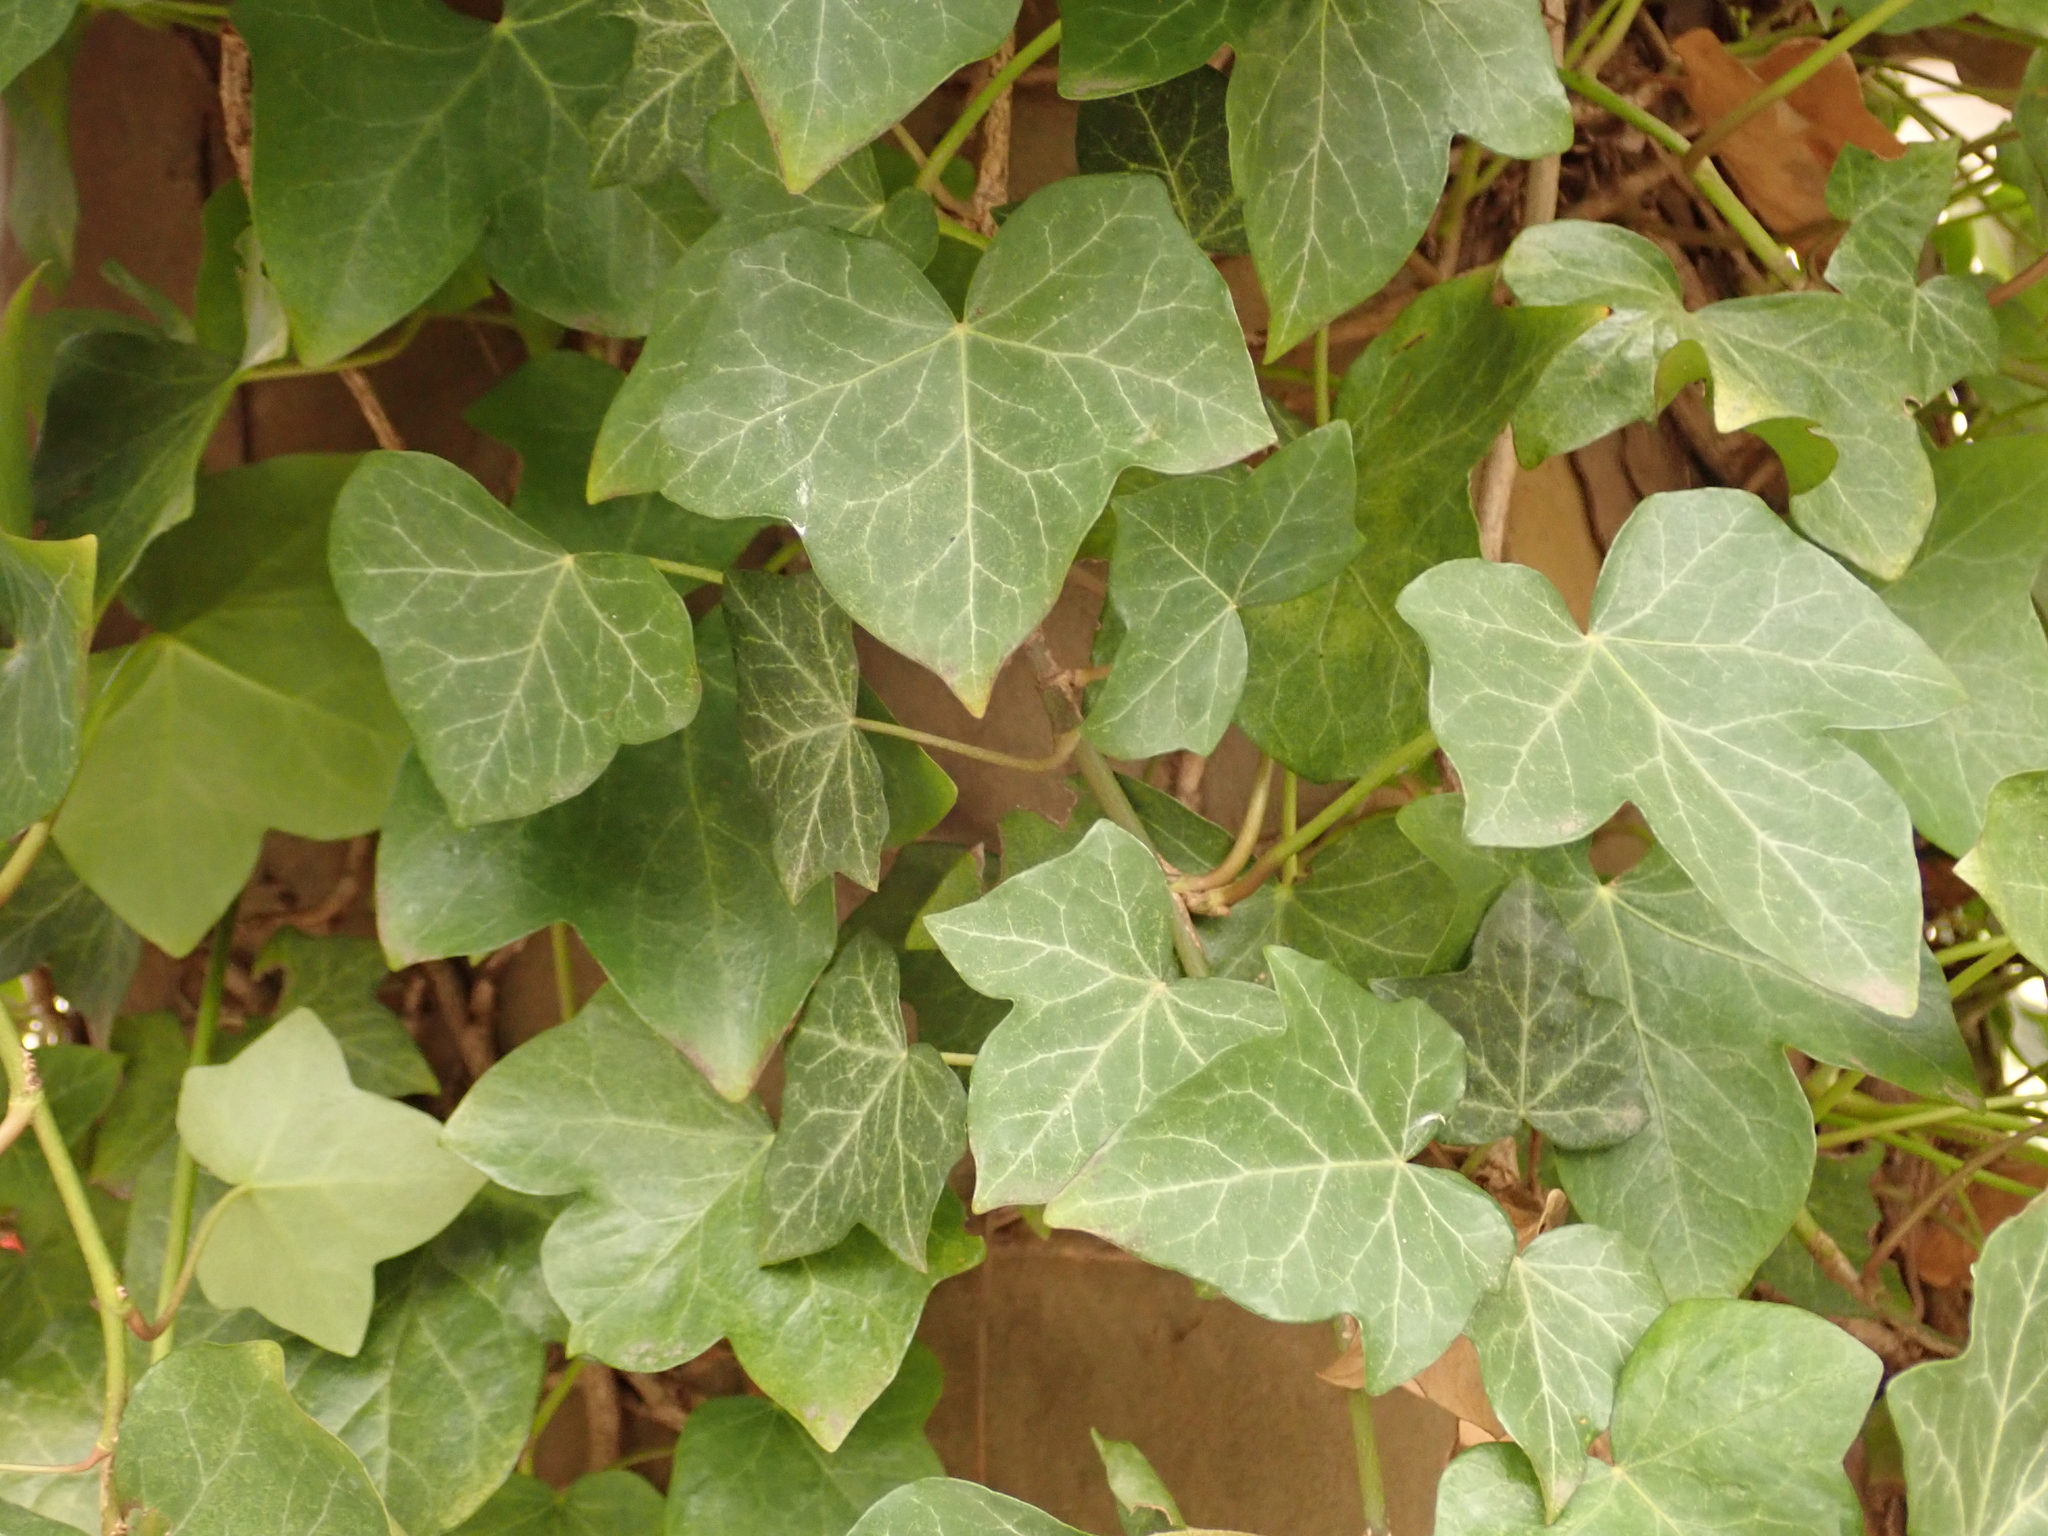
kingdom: Plantae
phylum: Tracheophyta
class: Magnoliopsida
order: Apiales
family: Araliaceae
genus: Hedera
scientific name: Hedera helix
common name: Ivy
